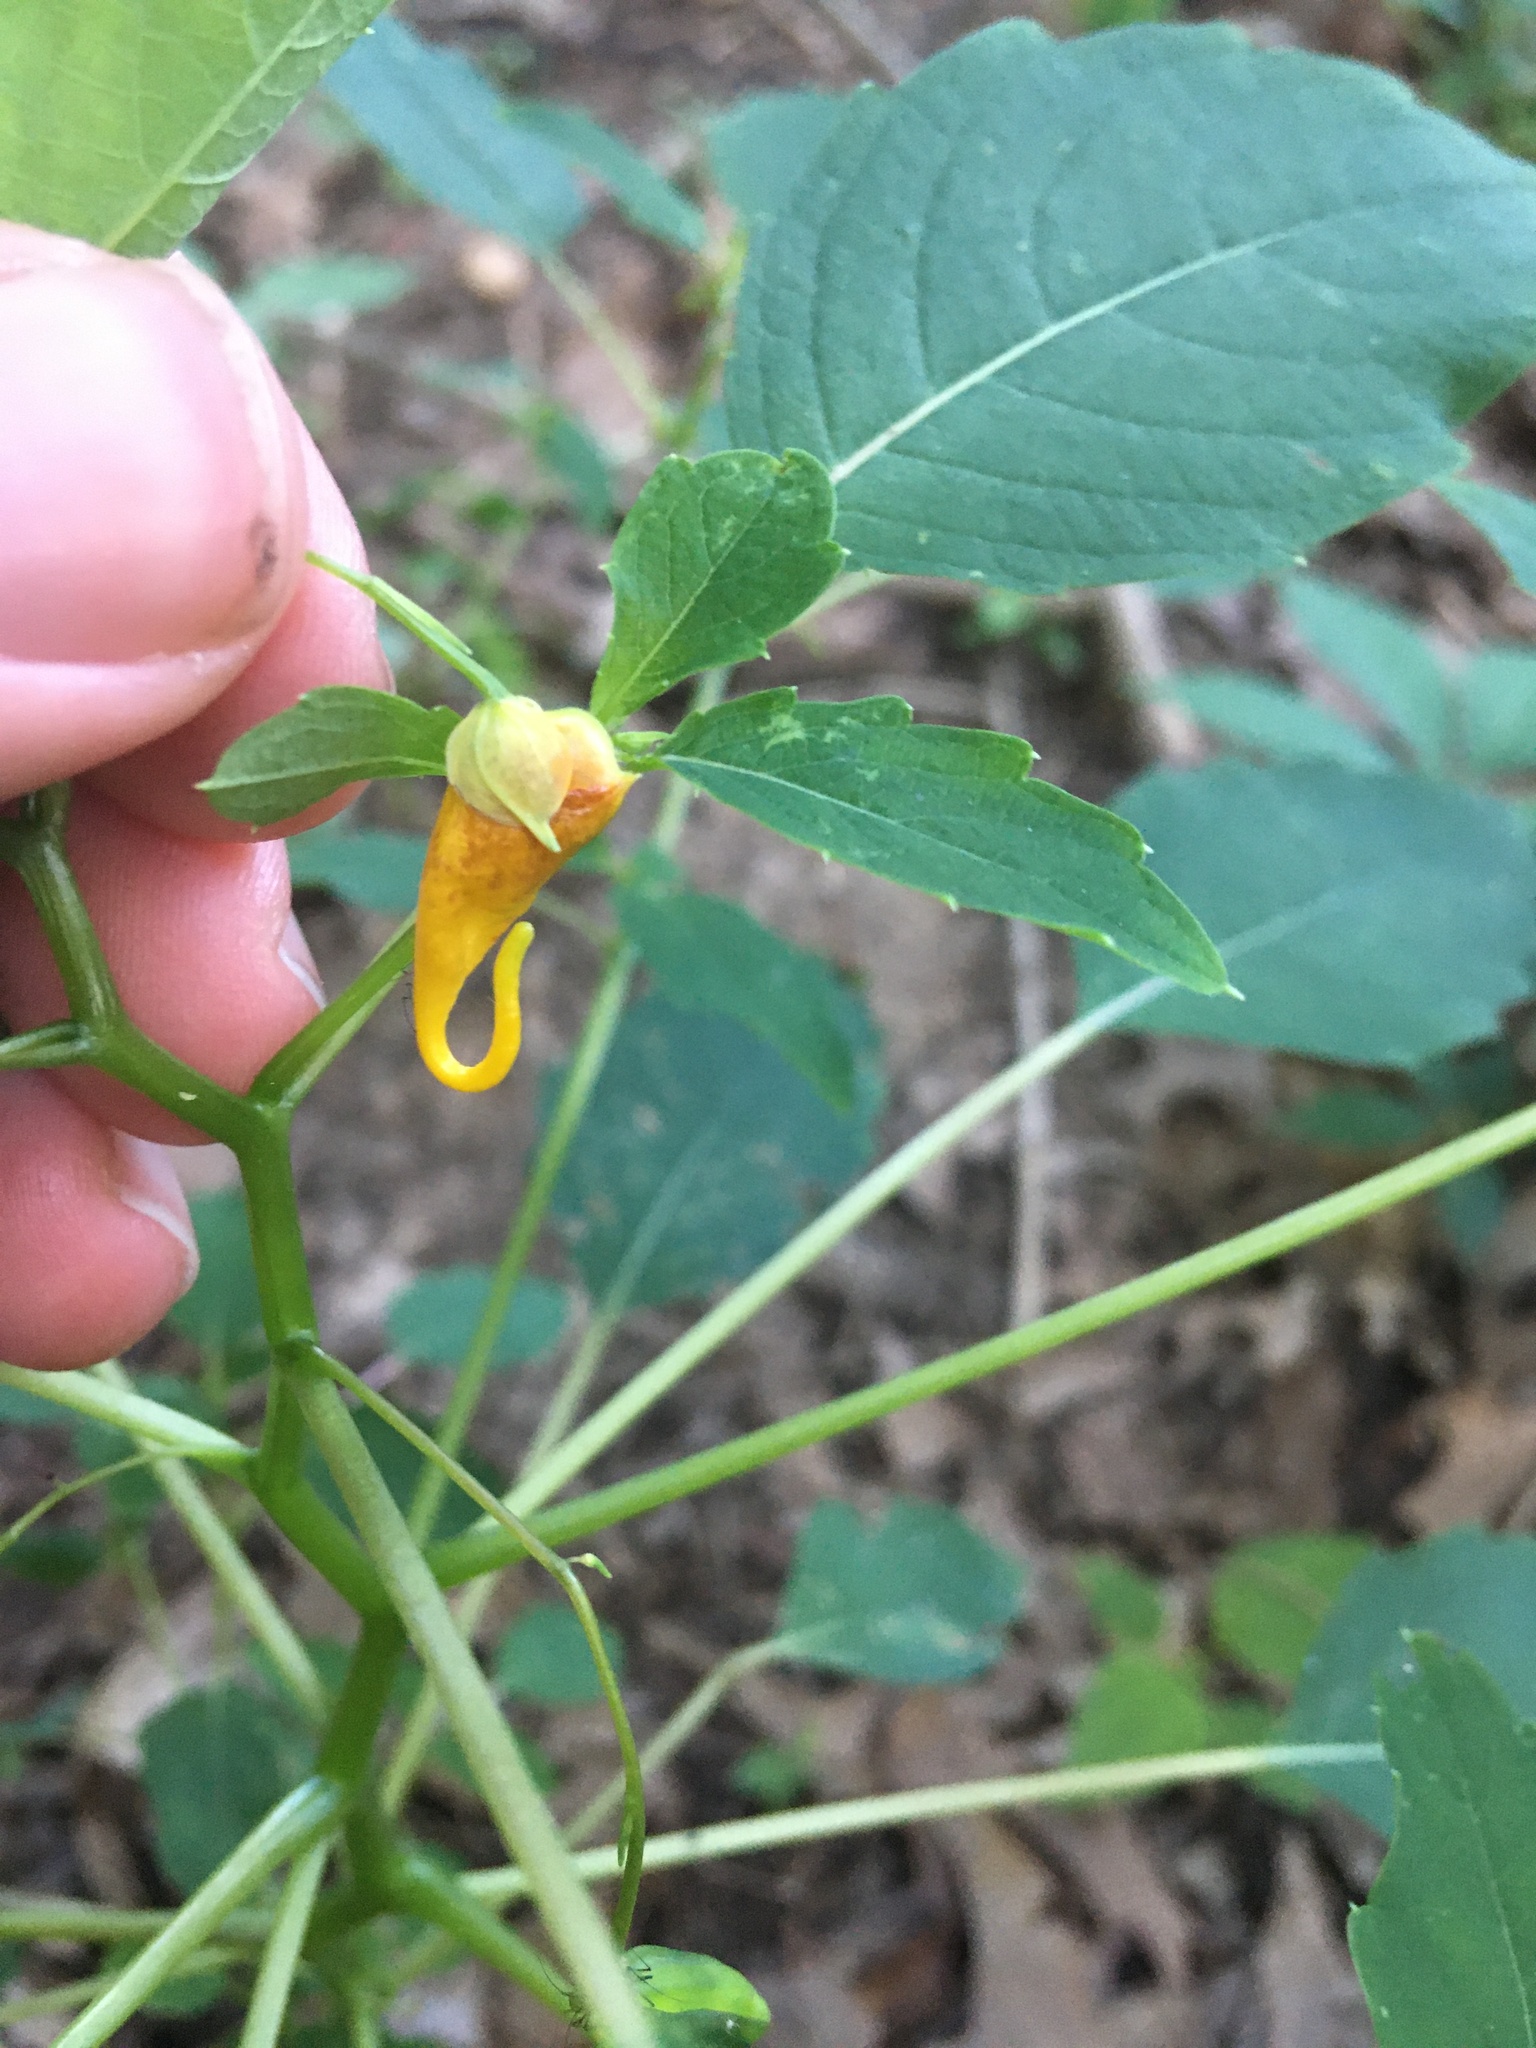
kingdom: Plantae
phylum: Tracheophyta
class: Magnoliopsida
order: Ericales
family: Balsaminaceae
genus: Impatiens
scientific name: Impatiens capensis
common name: Orange balsam
